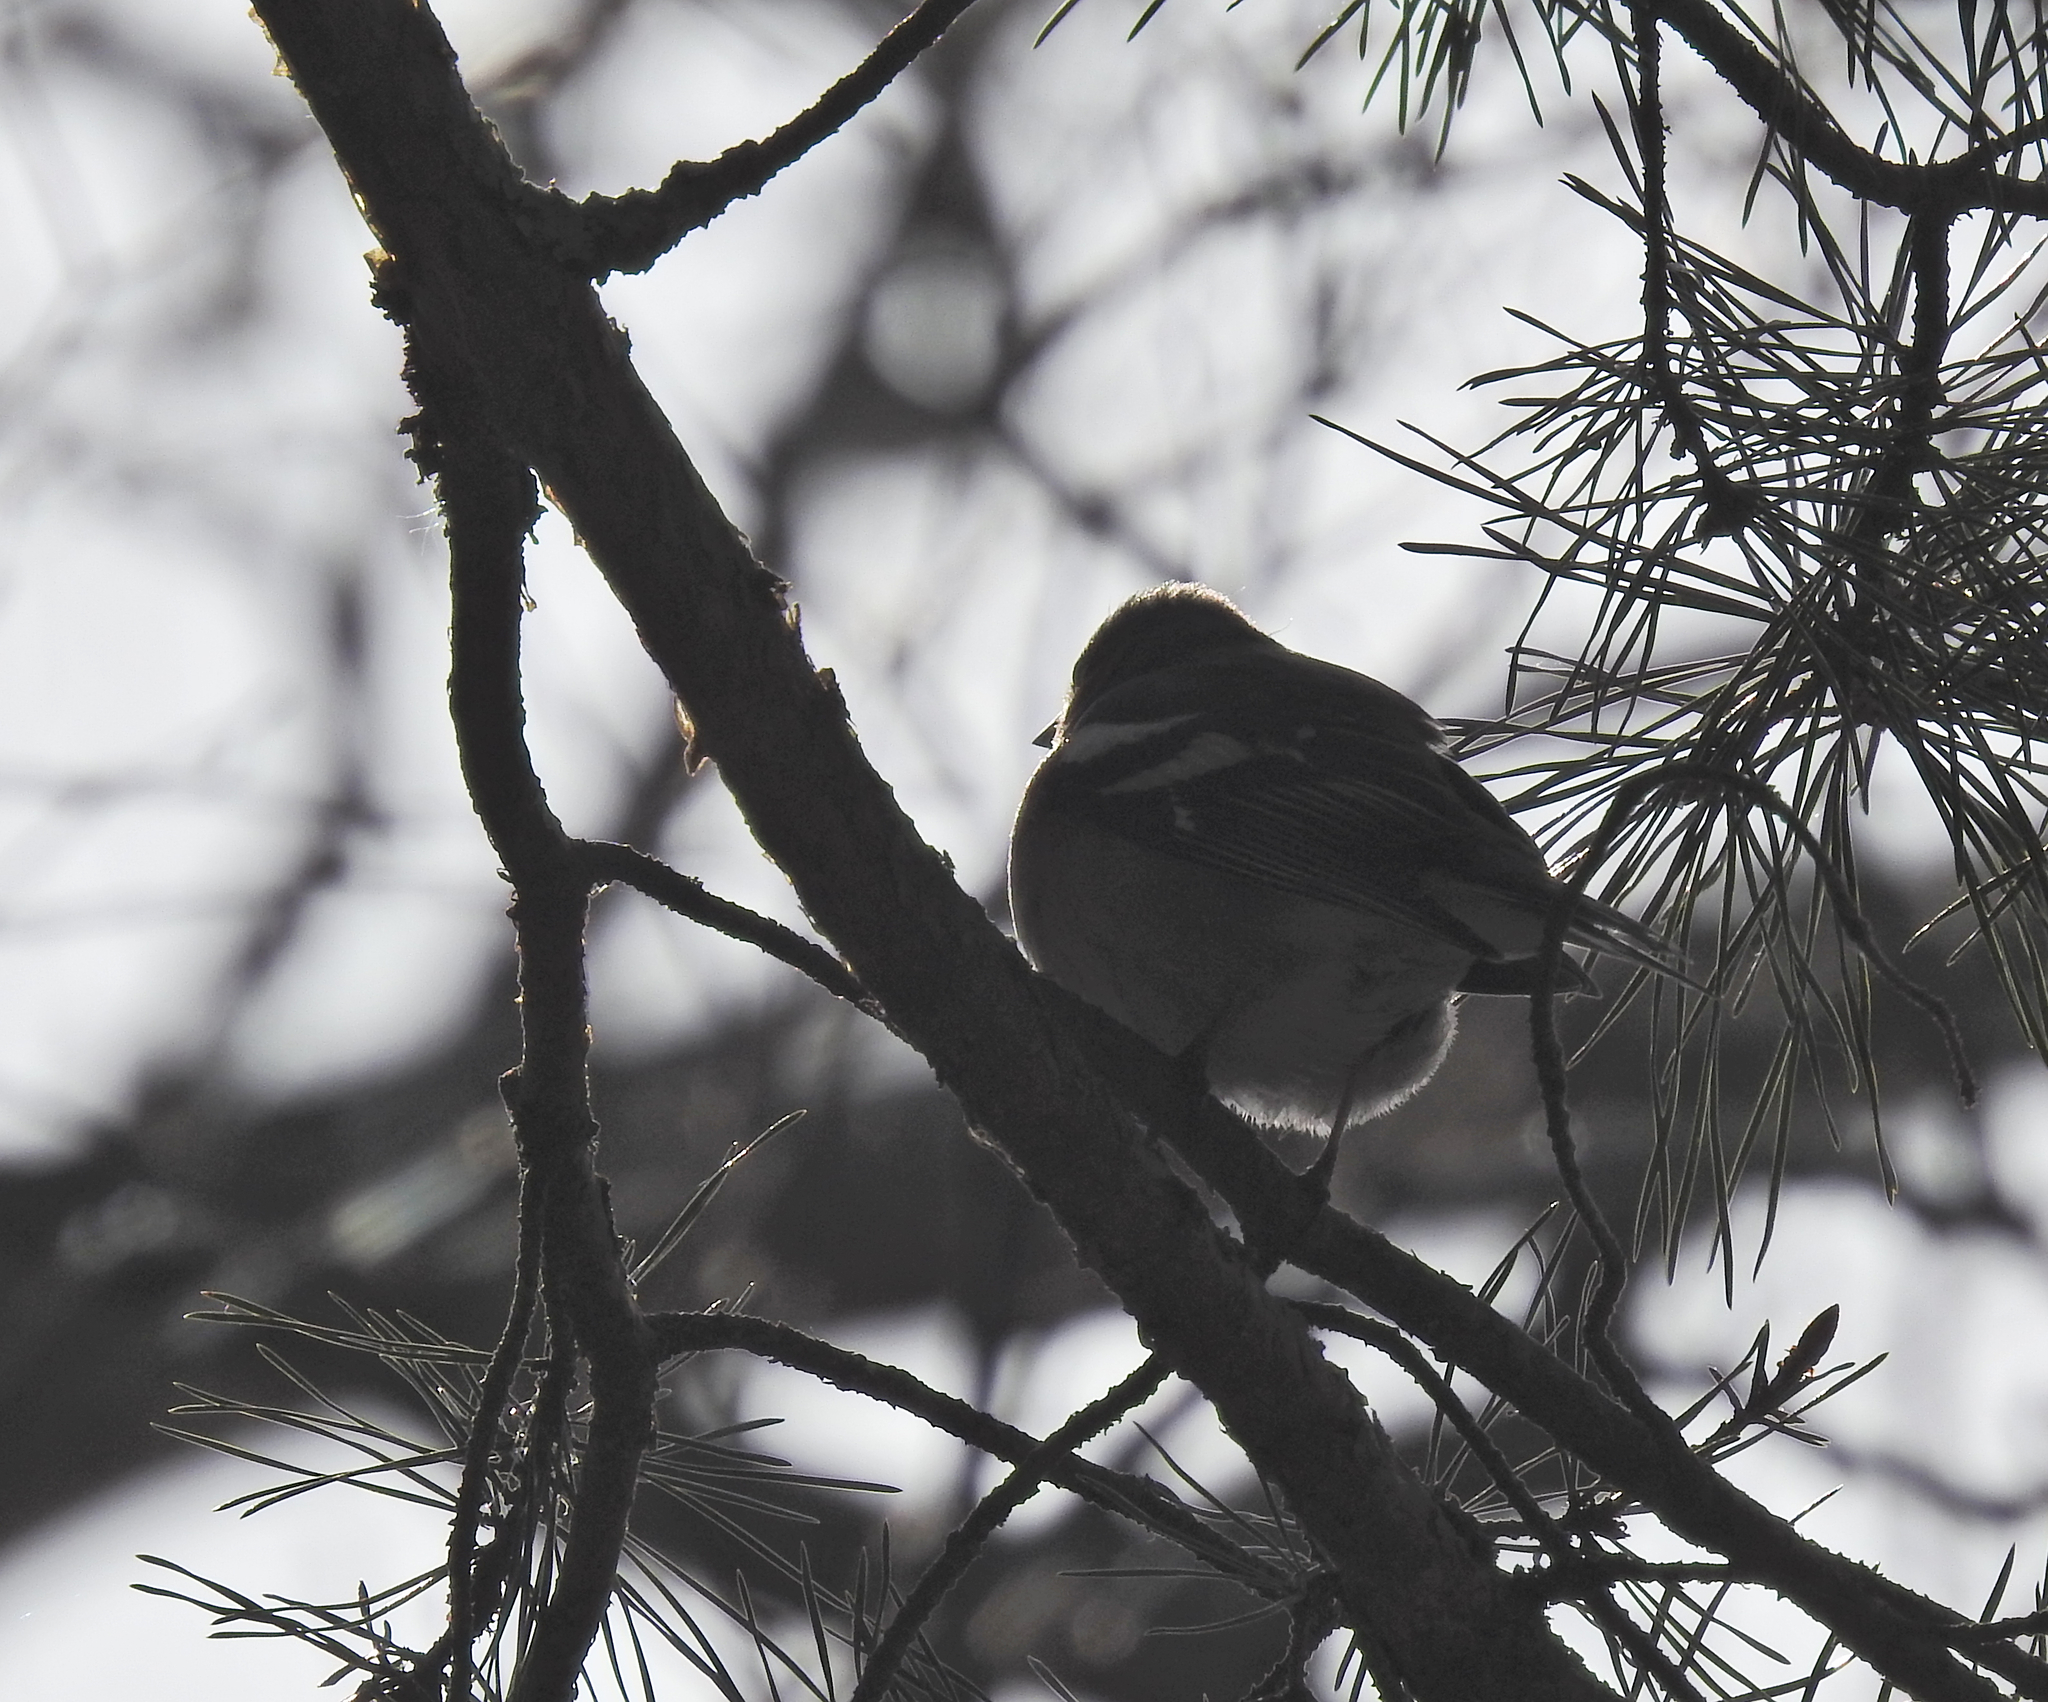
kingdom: Animalia
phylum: Chordata
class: Aves
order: Passeriformes
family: Fringillidae
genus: Fringilla
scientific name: Fringilla coelebs
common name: Common chaffinch
